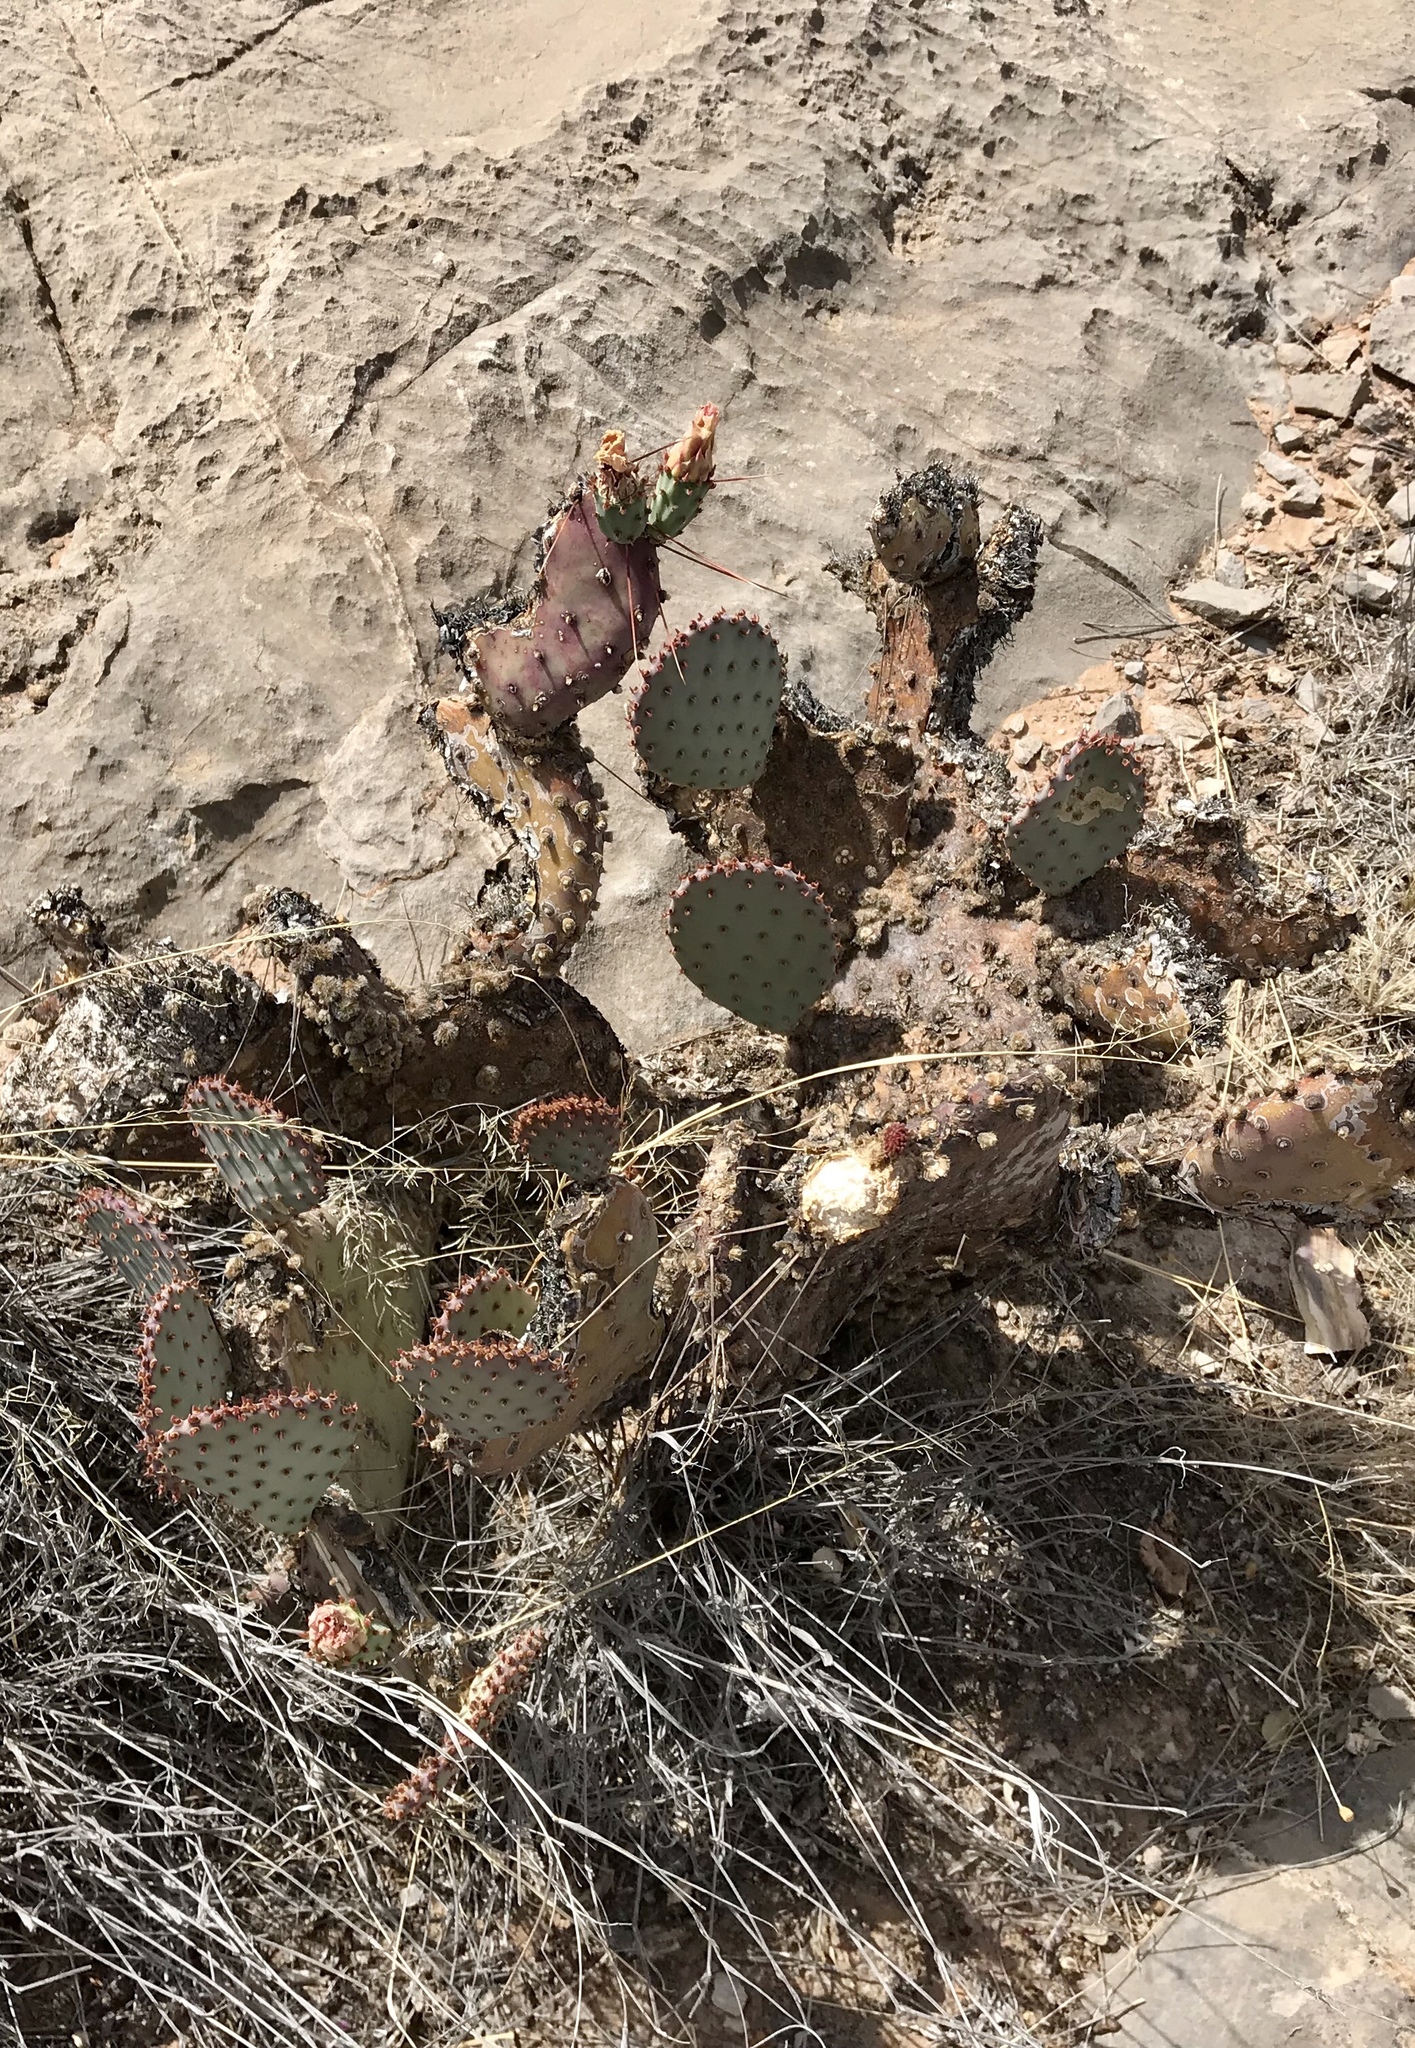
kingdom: Plantae
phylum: Tracheophyta
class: Magnoliopsida
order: Caryophyllales
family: Cactaceae
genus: Opuntia
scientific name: Opuntia macrocentra
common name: Purple prickly-pear
